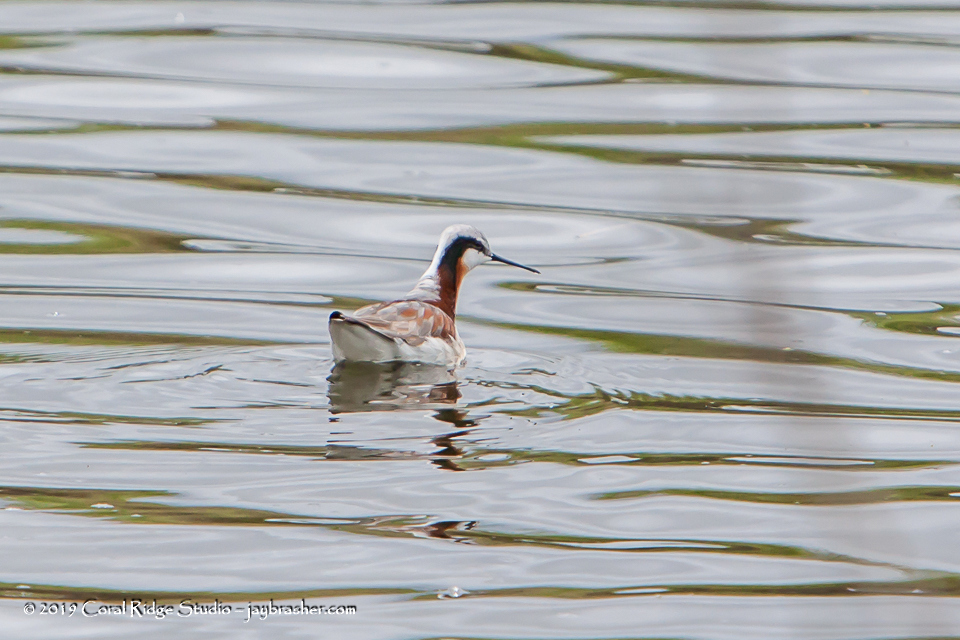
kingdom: Animalia
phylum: Chordata
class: Aves
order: Charadriiformes
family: Scolopacidae
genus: Phalaropus
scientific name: Phalaropus tricolor
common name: Wilson's phalarope
